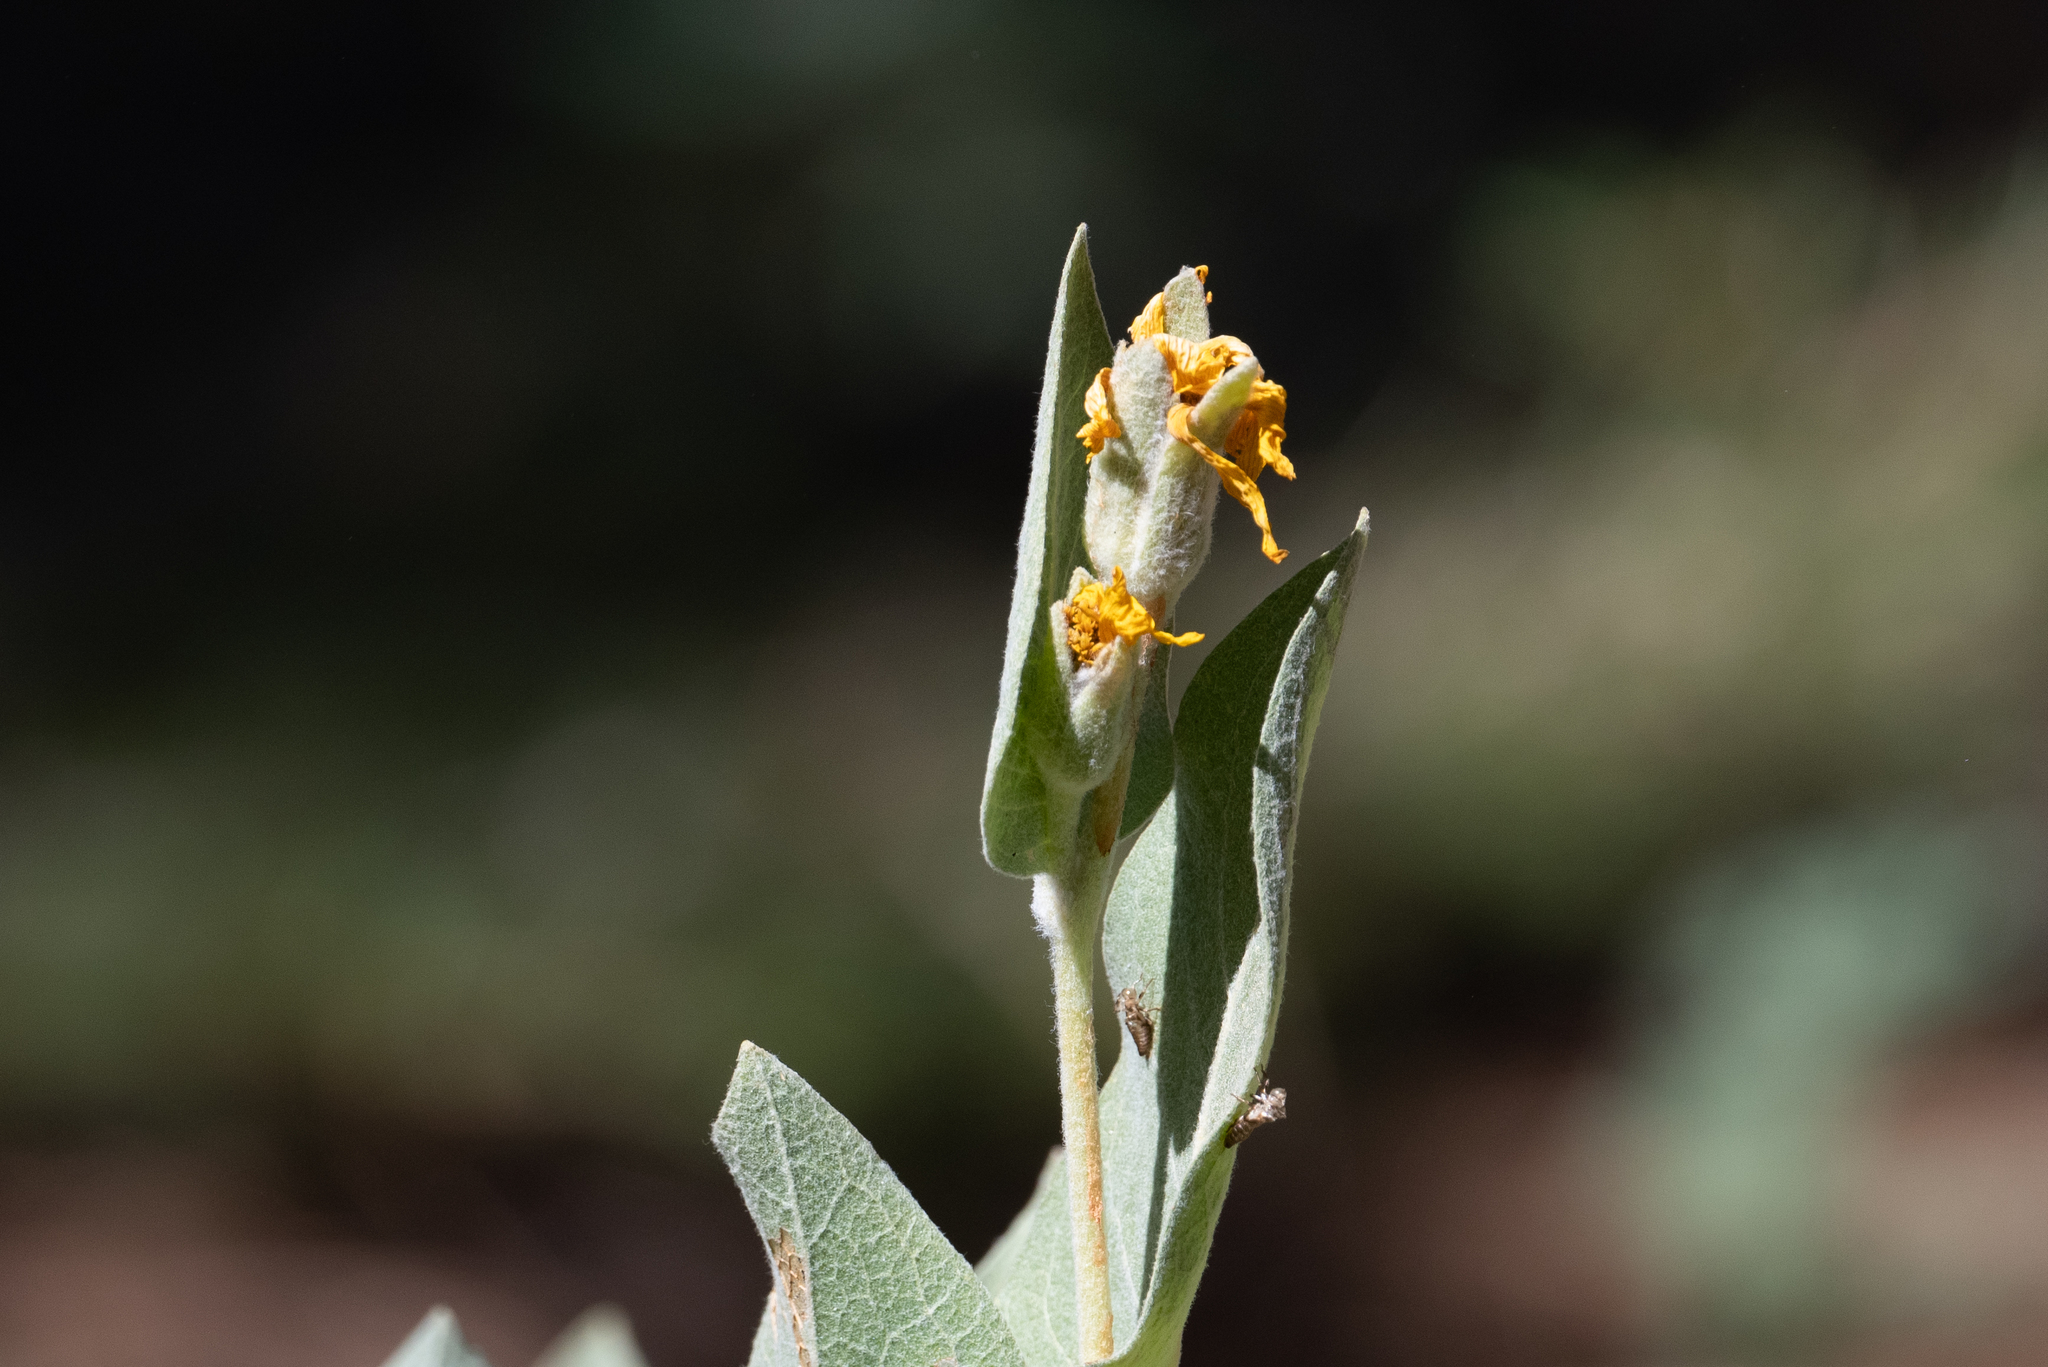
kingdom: Plantae
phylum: Tracheophyta
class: Magnoliopsida
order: Asterales
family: Asteraceae
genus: Wyethia
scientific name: Wyethia mollis
